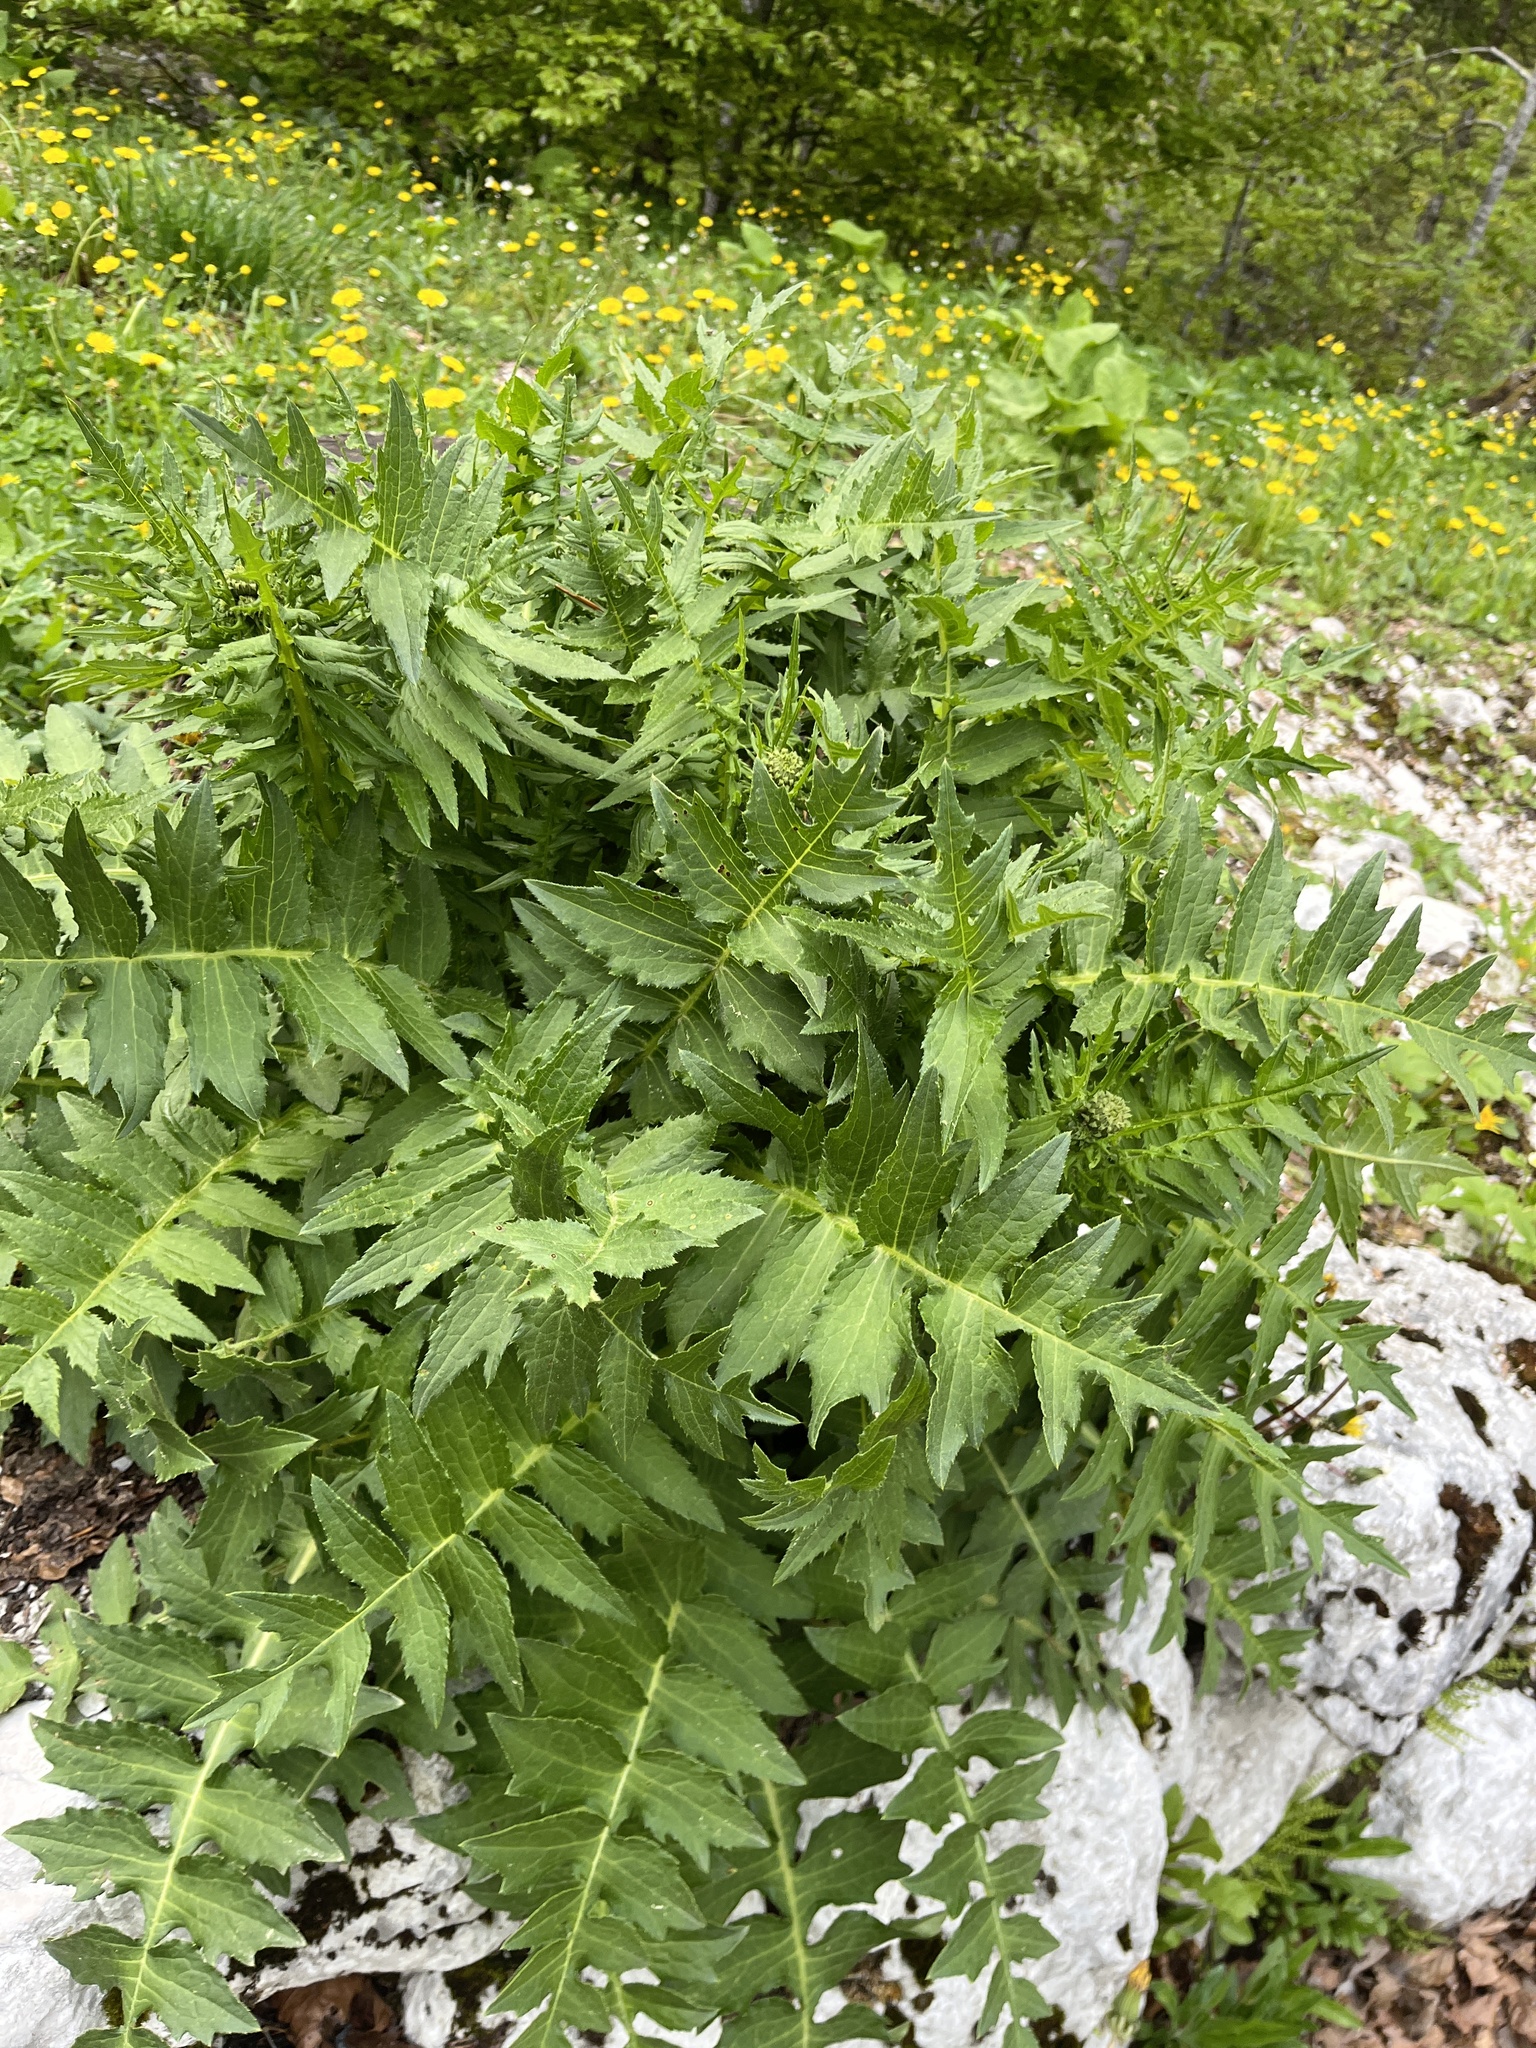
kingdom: Plantae
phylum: Tracheophyta
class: Magnoliopsida
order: Asterales
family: Asteraceae
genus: Cirsium
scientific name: Cirsium erisithales
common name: Yellow thistle
